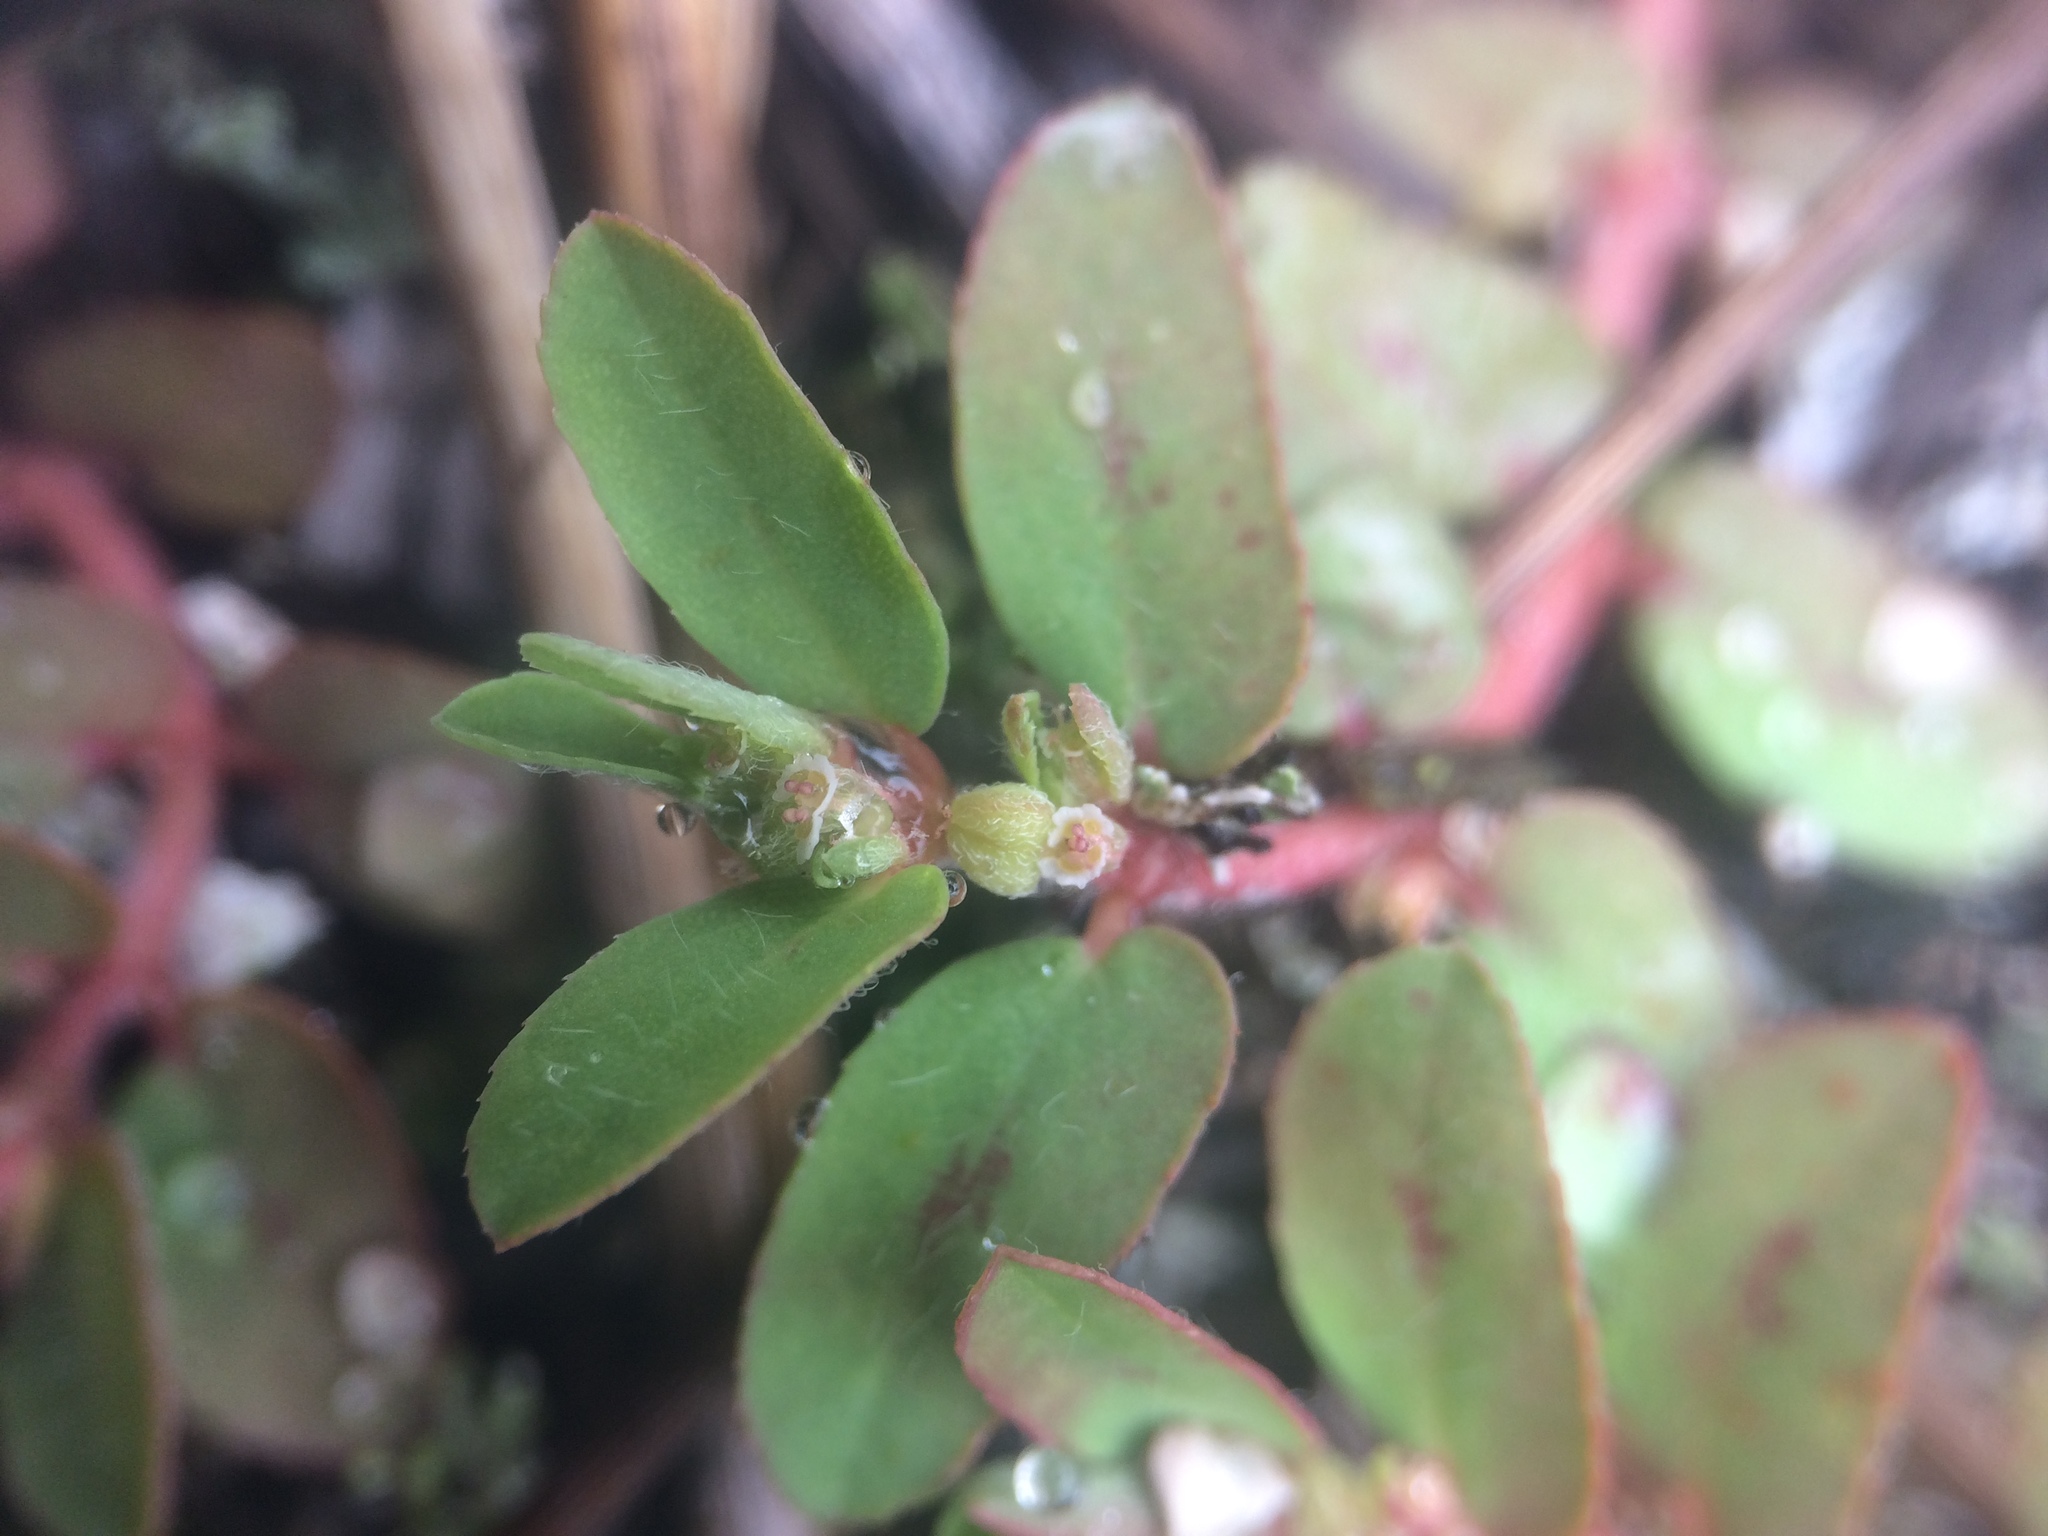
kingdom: Plantae
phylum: Tracheophyta
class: Magnoliopsida
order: Malpighiales
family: Euphorbiaceae
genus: Euphorbia
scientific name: Euphorbia maculata
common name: Spotted spurge
